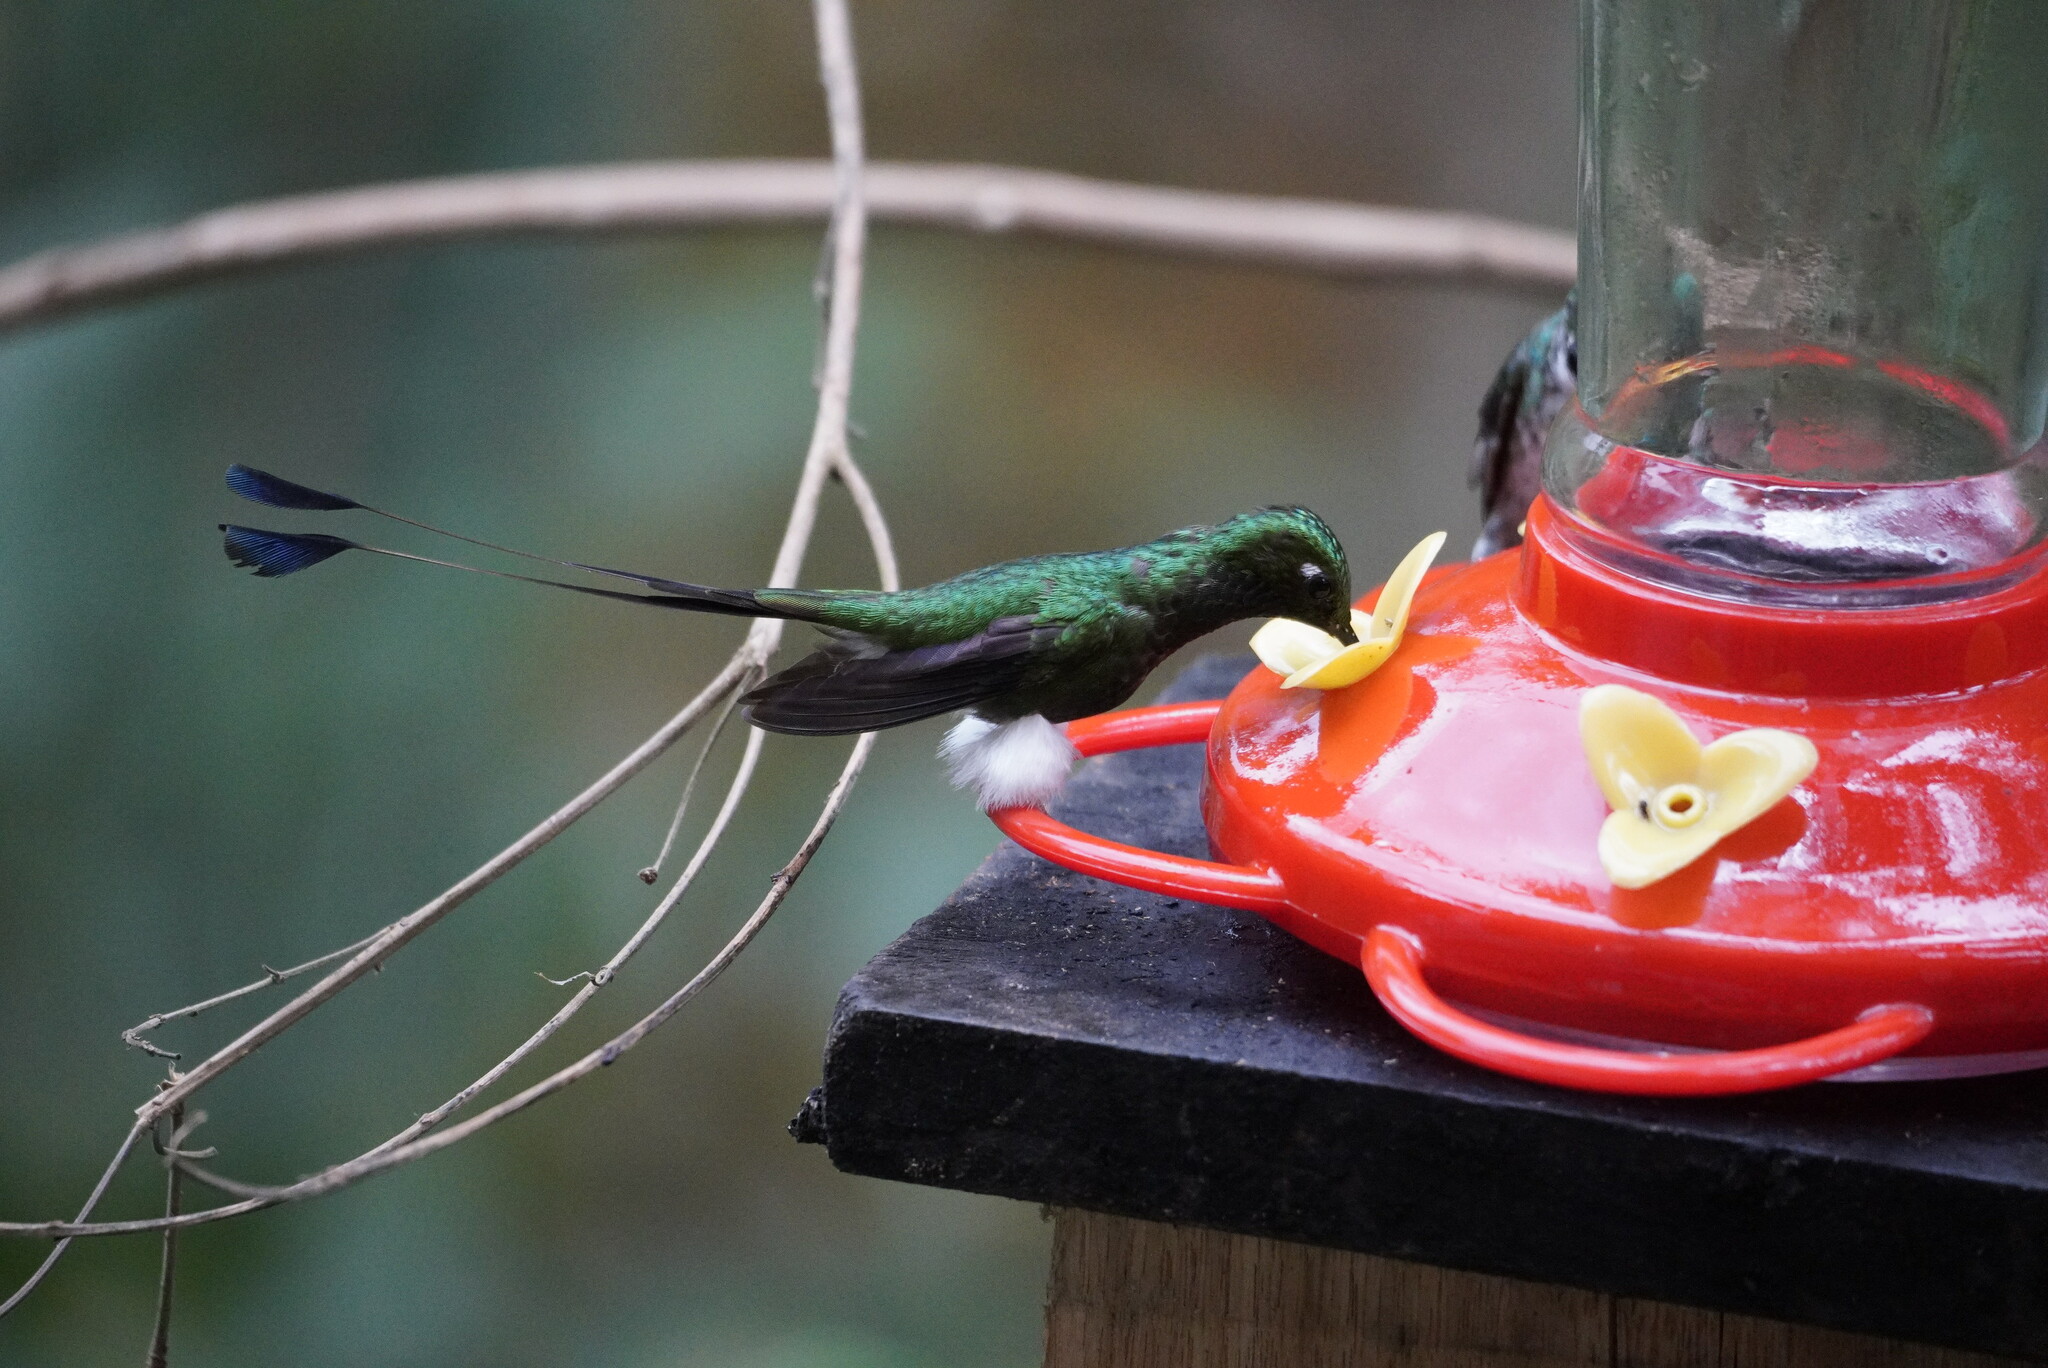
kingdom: Animalia
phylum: Chordata
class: Aves
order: Apodiformes
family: Trochilidae
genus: Ocreatus
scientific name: Ocreatus underwoodii
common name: Booted racket-tail
